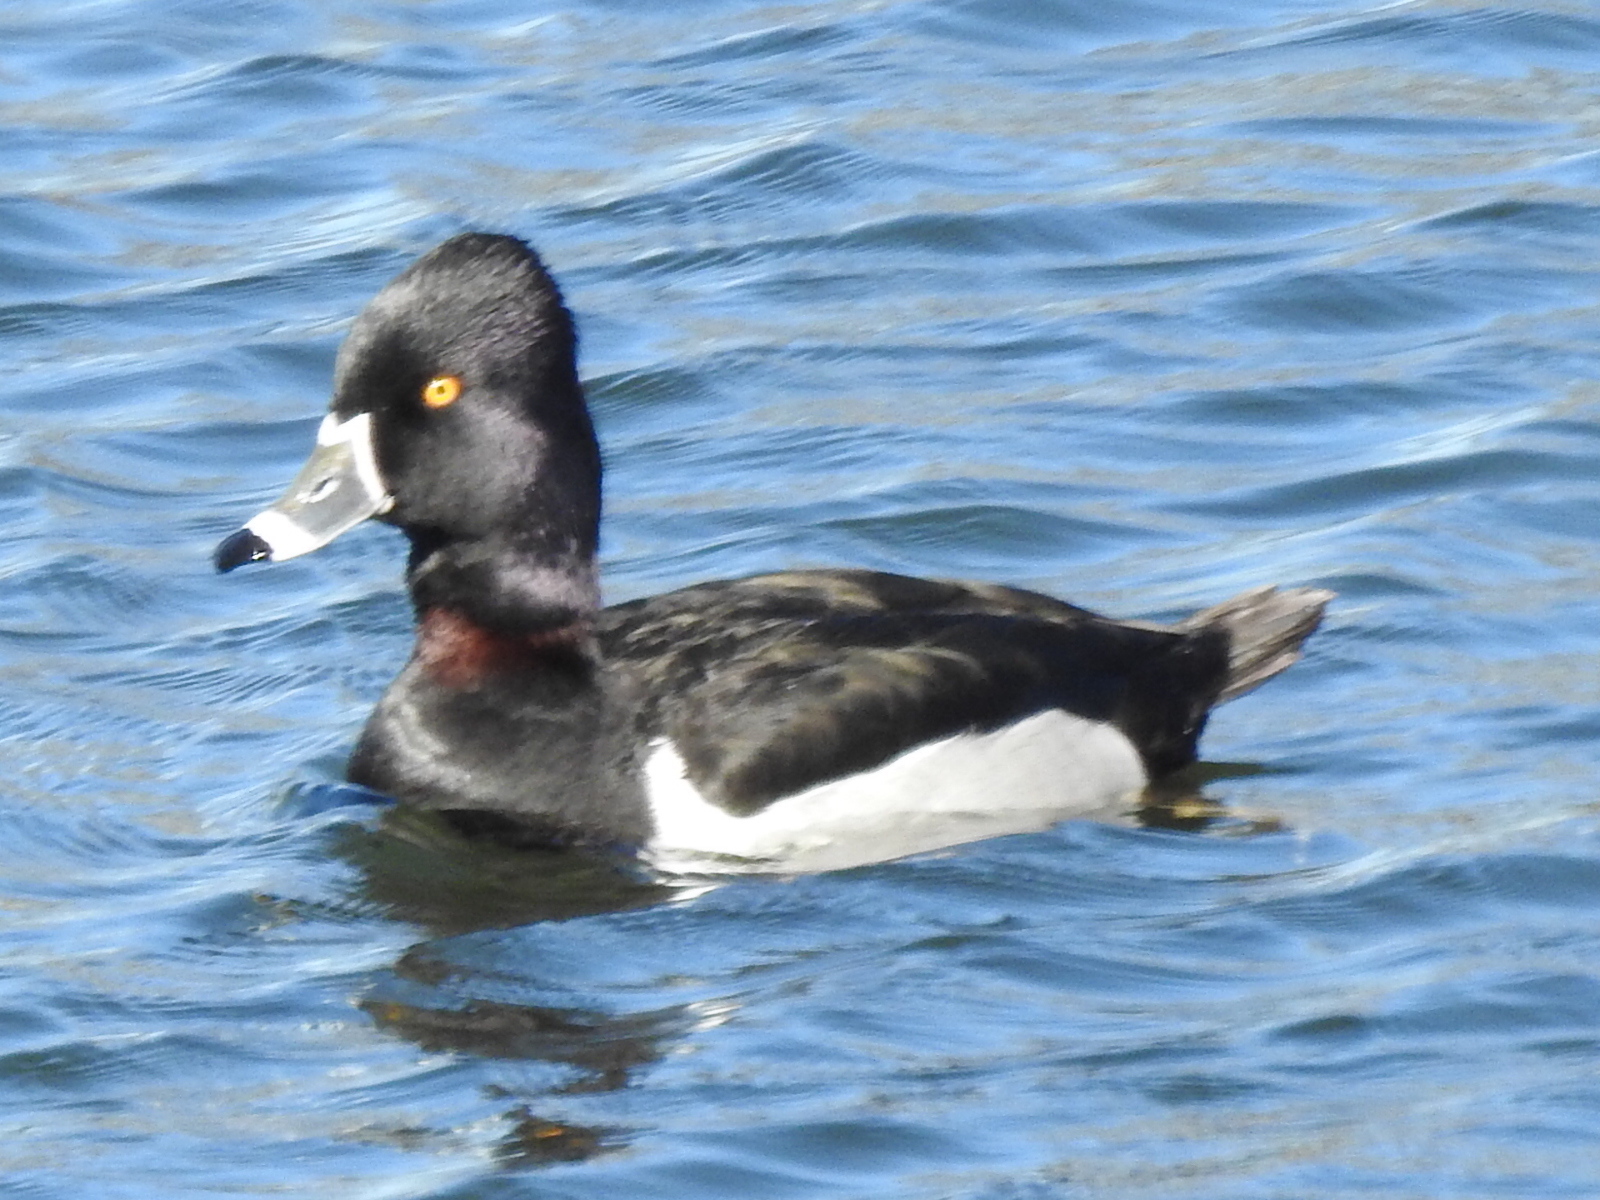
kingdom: Animalia
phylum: Chordata
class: Aves
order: Anseriformes
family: Anatidae
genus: Aythya
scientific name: Aythya collaris
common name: Ring-necked duck
